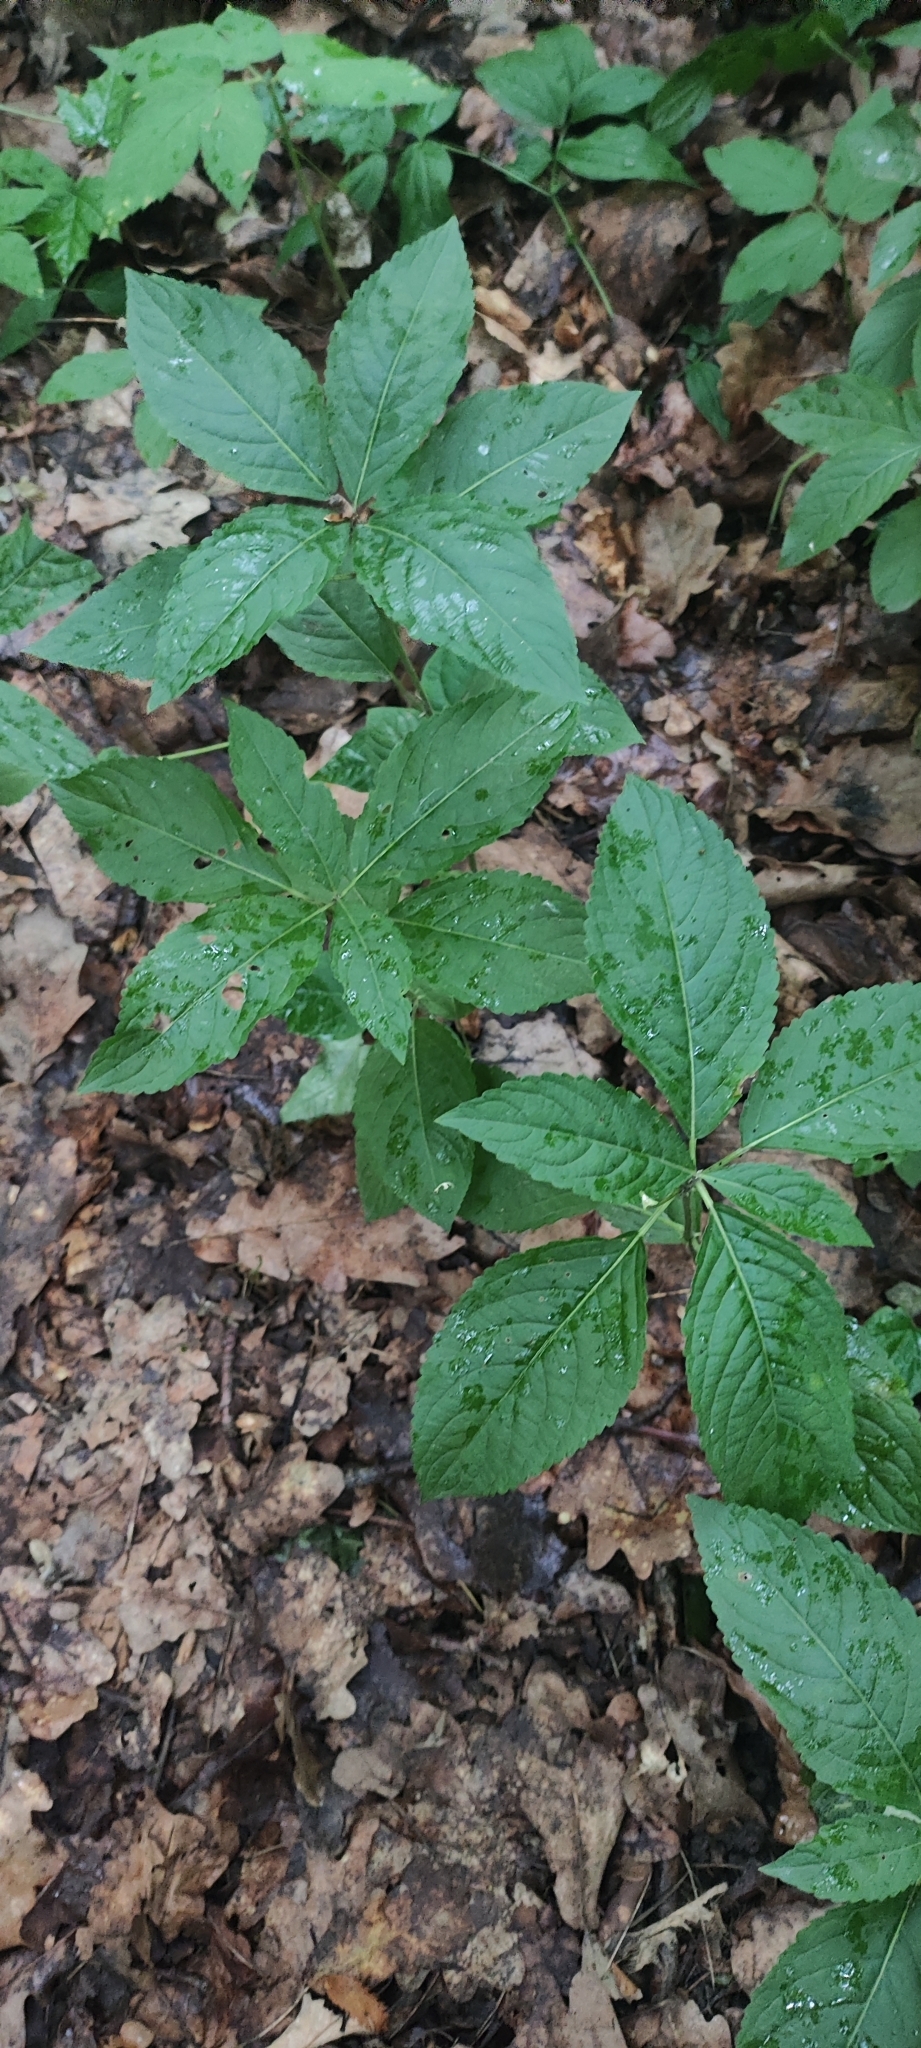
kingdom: Plantae
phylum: Tracheophyta
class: Magnoliopsida
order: Malpighiales
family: Euphorbiaceae
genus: Mercurialis
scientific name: Mercurialis perennis
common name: Dog mercury
